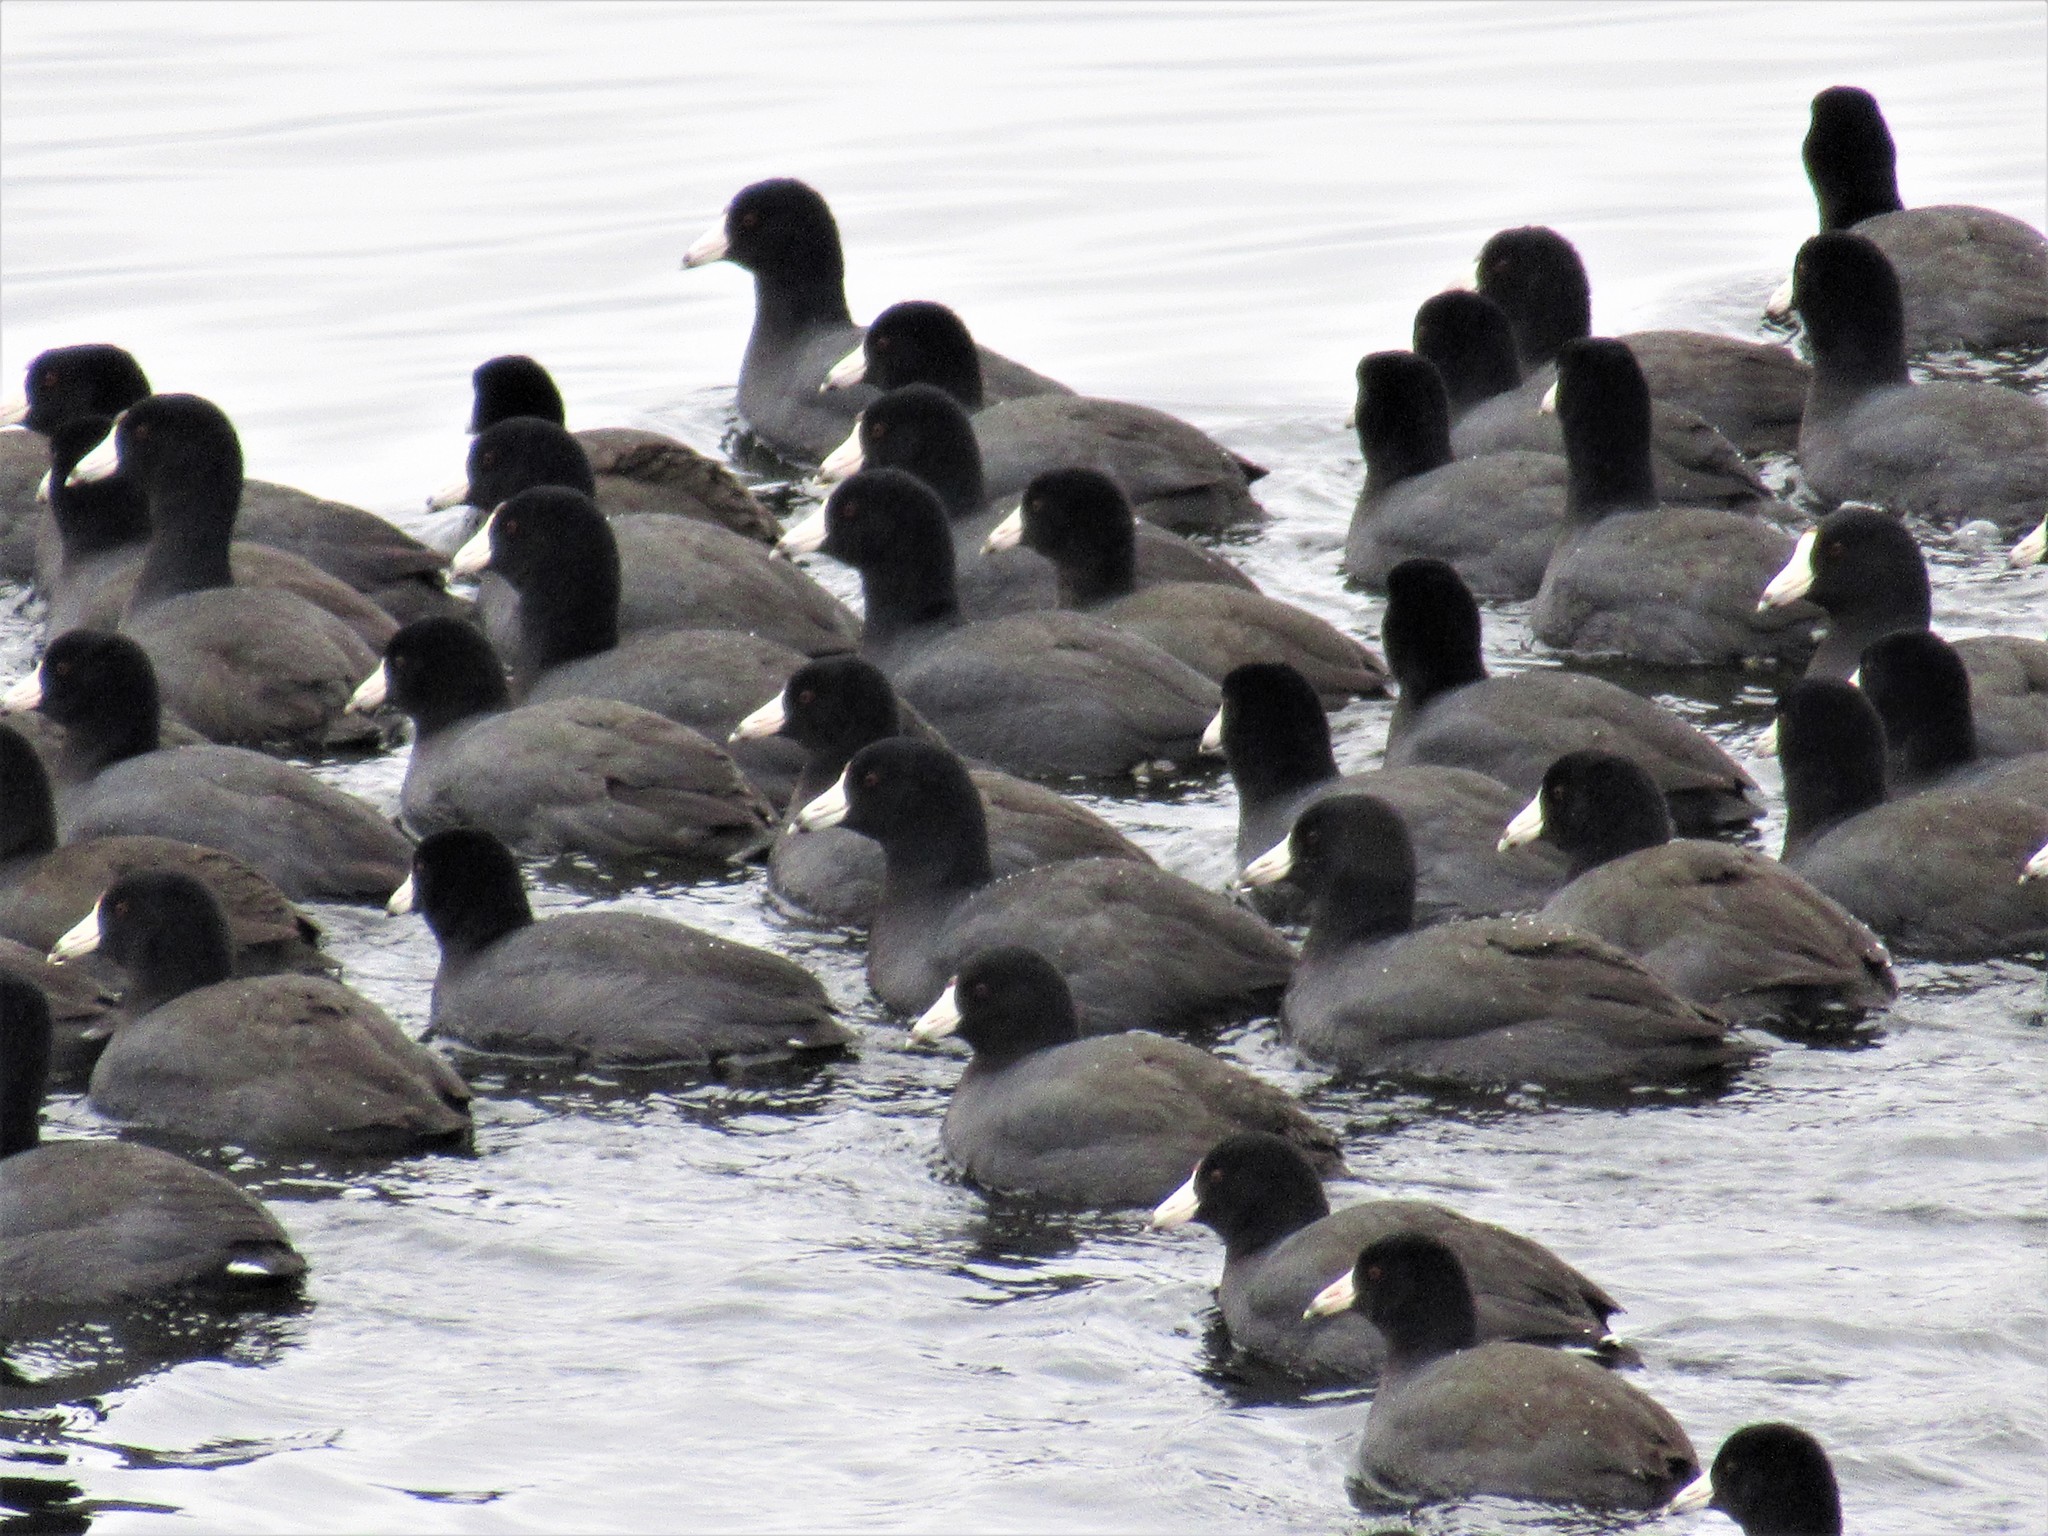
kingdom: Animalia
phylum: Chordata
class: Aves
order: Gruiformes
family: Rallidae
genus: Fulica
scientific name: Fulica americana
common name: American coot
